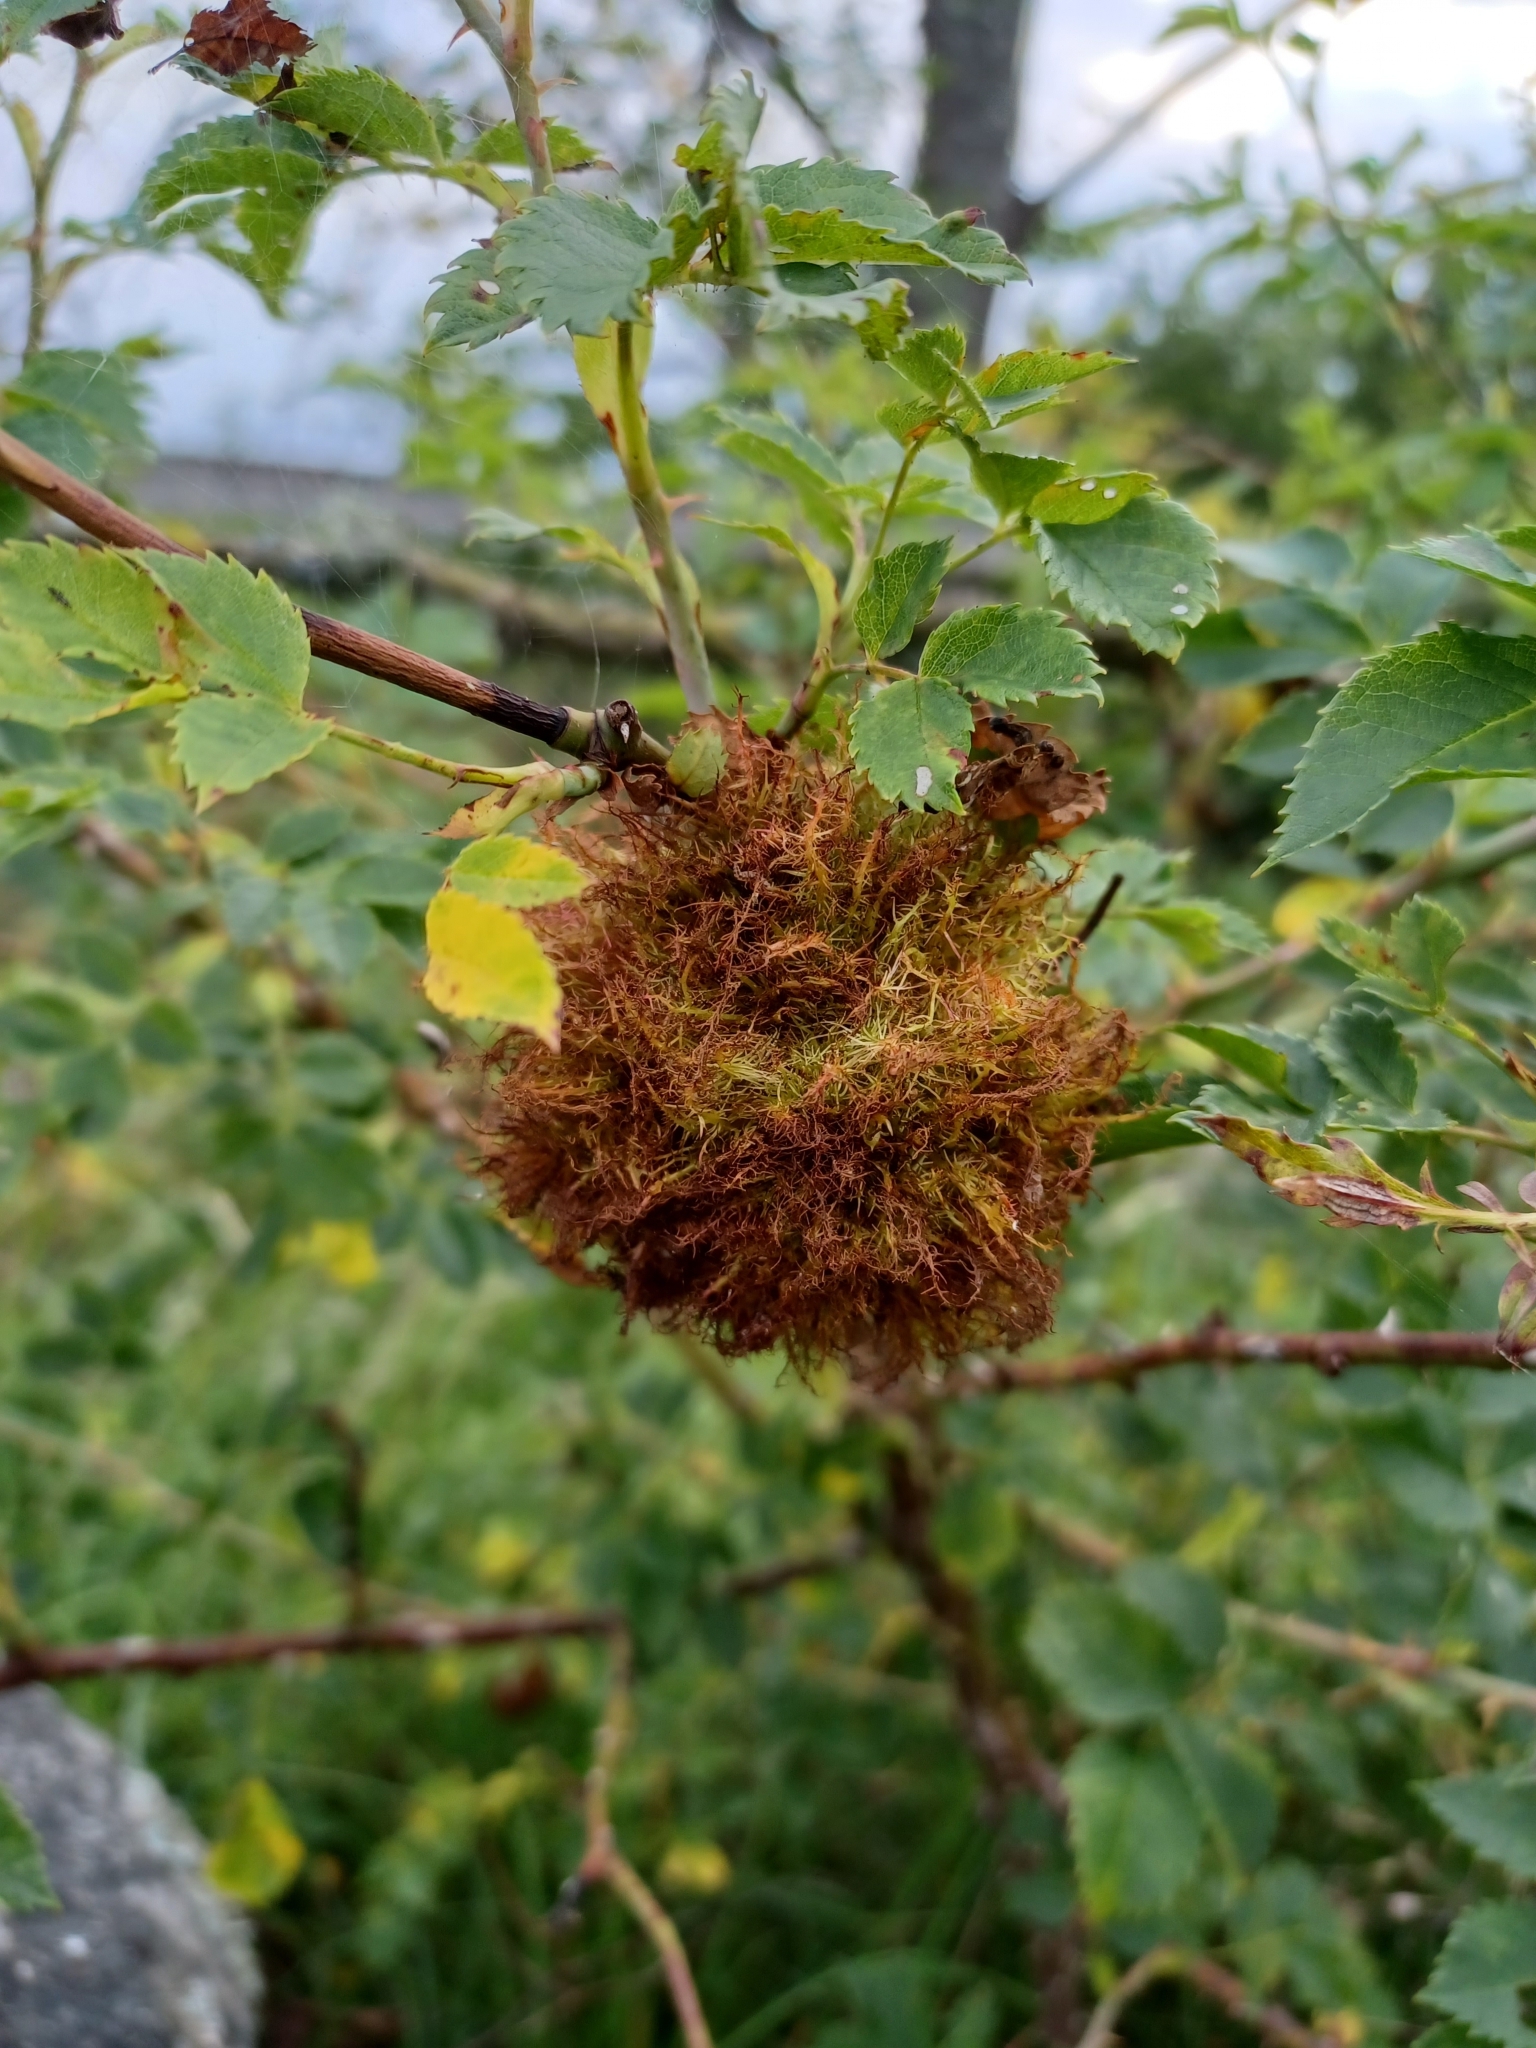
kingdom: Animalia
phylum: Arthropoda
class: Insecta
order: Hymenoptera
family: Cynipidae
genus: Diplolepis
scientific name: Diplolepis rosae
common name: Bedeguar gall
